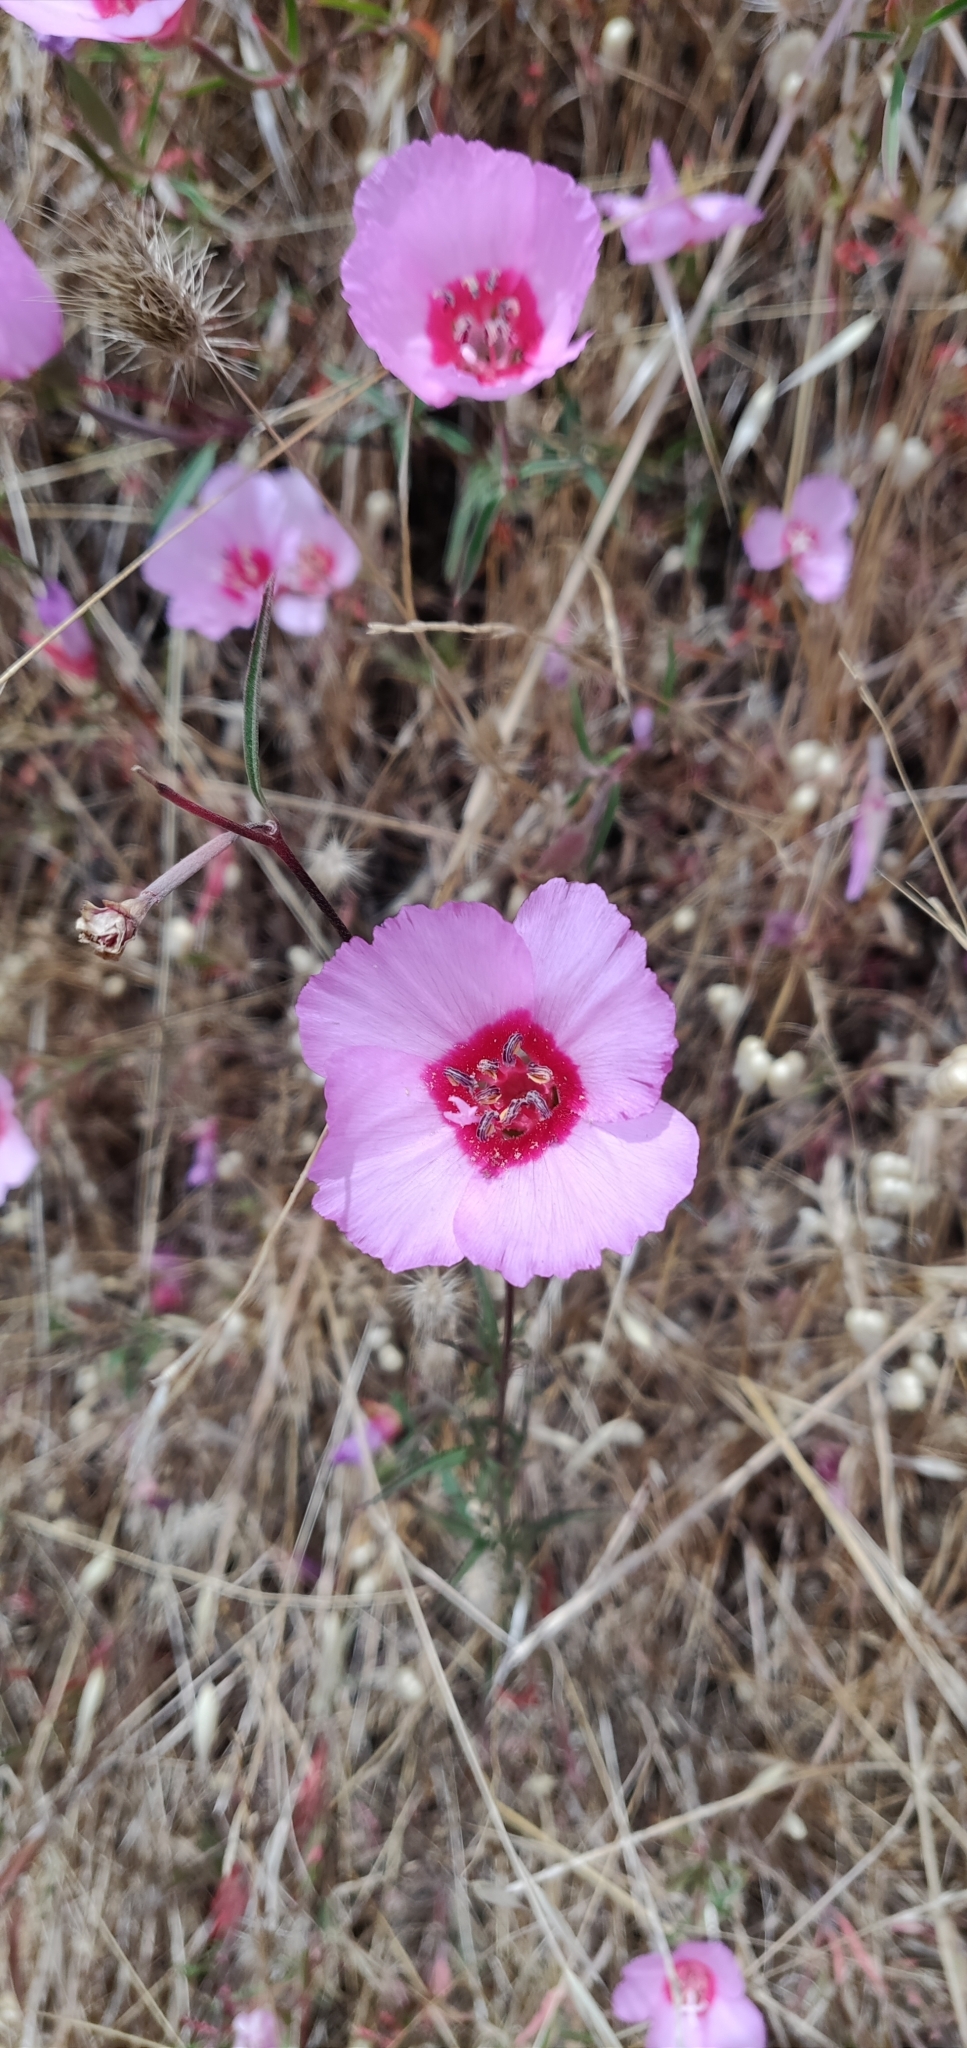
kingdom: Plantae
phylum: Tracheophyta
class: Magnoliopsida
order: Myrtales
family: Onagraceae
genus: Clarkia
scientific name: Clarkia rubicunda
